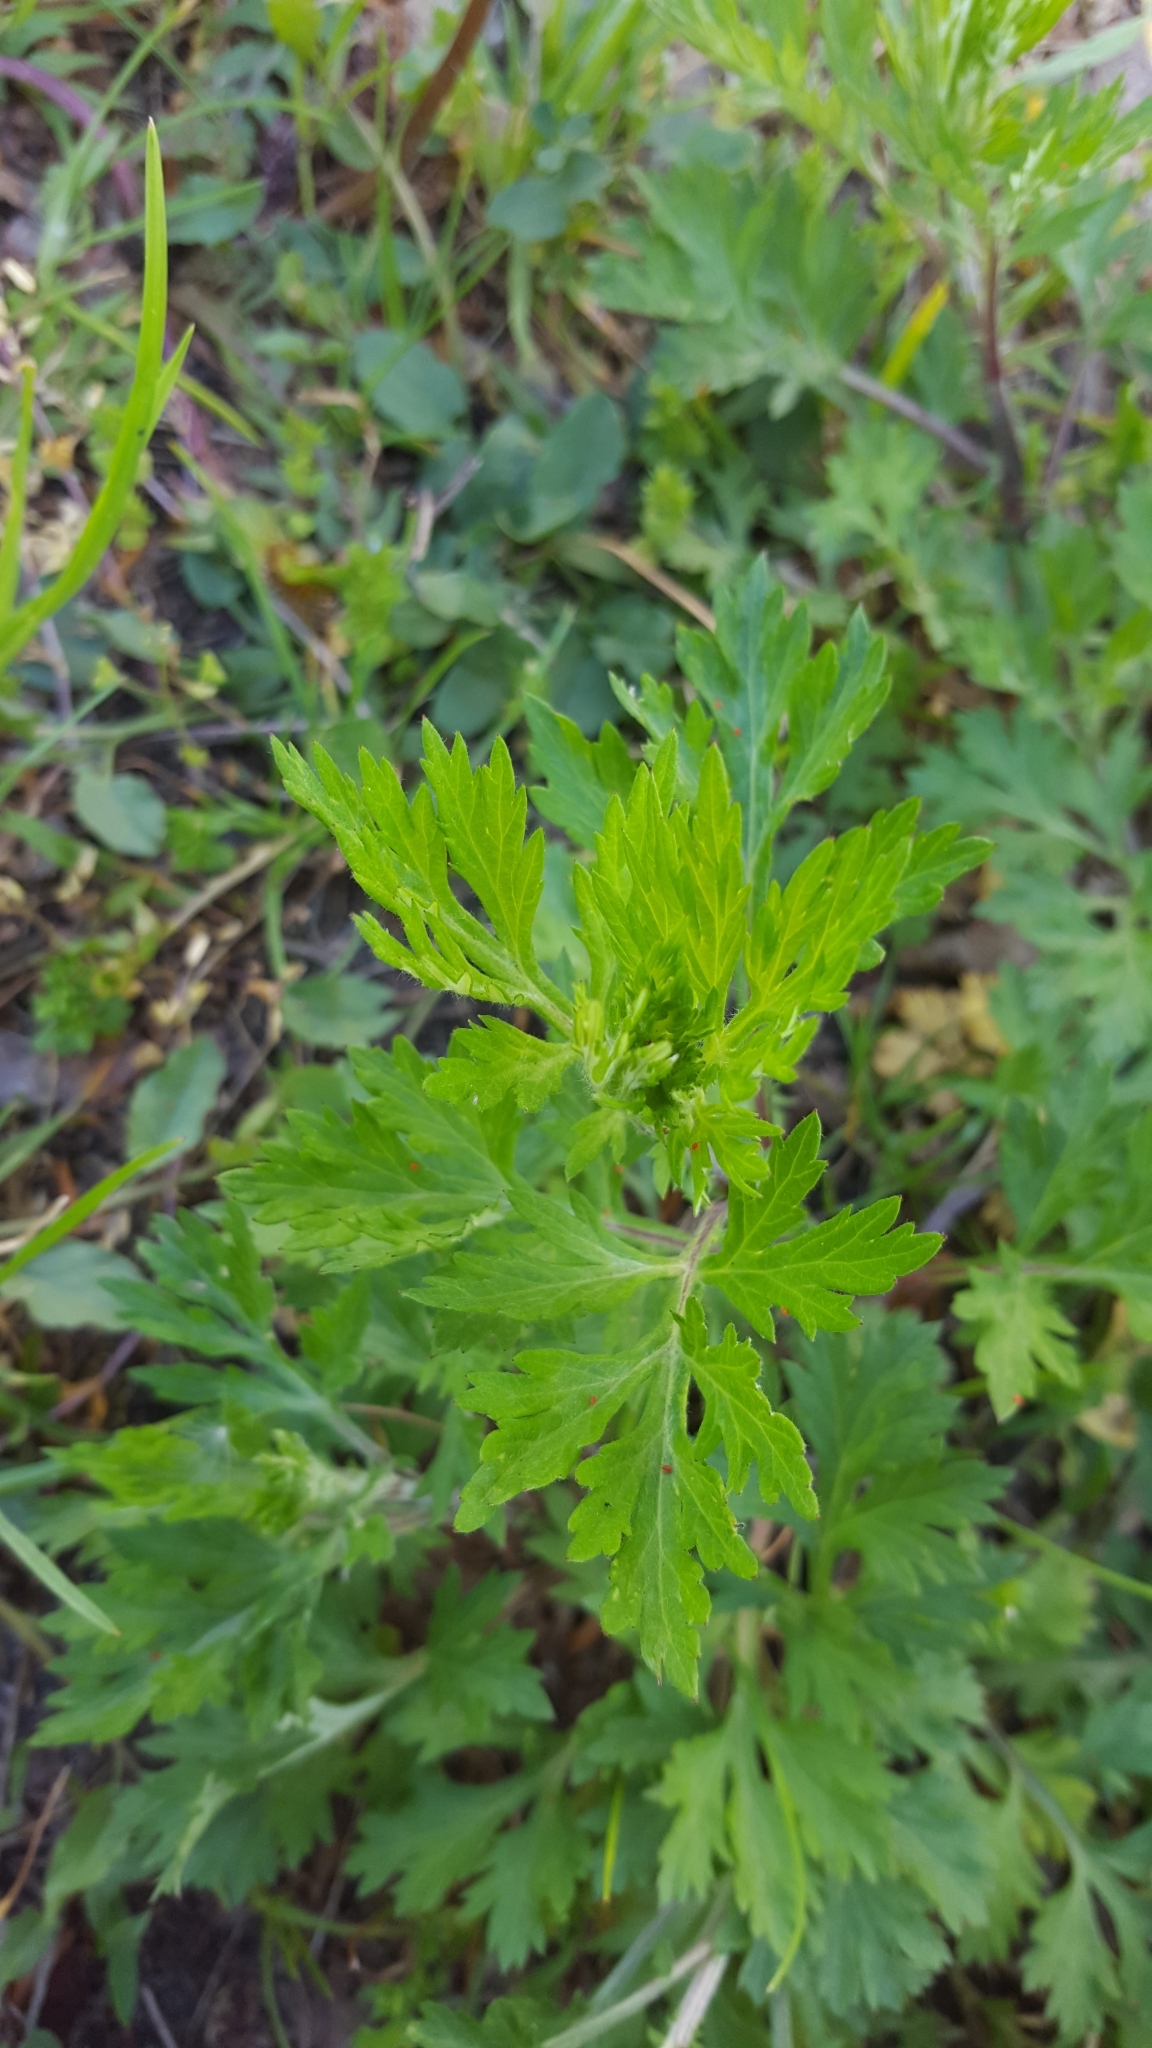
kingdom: Plantae
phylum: Tracheophyta
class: Magnoliopsida
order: Asterales
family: Asteraceae
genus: Artemisia
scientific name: Artemisia vulgaris
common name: Mugwort
